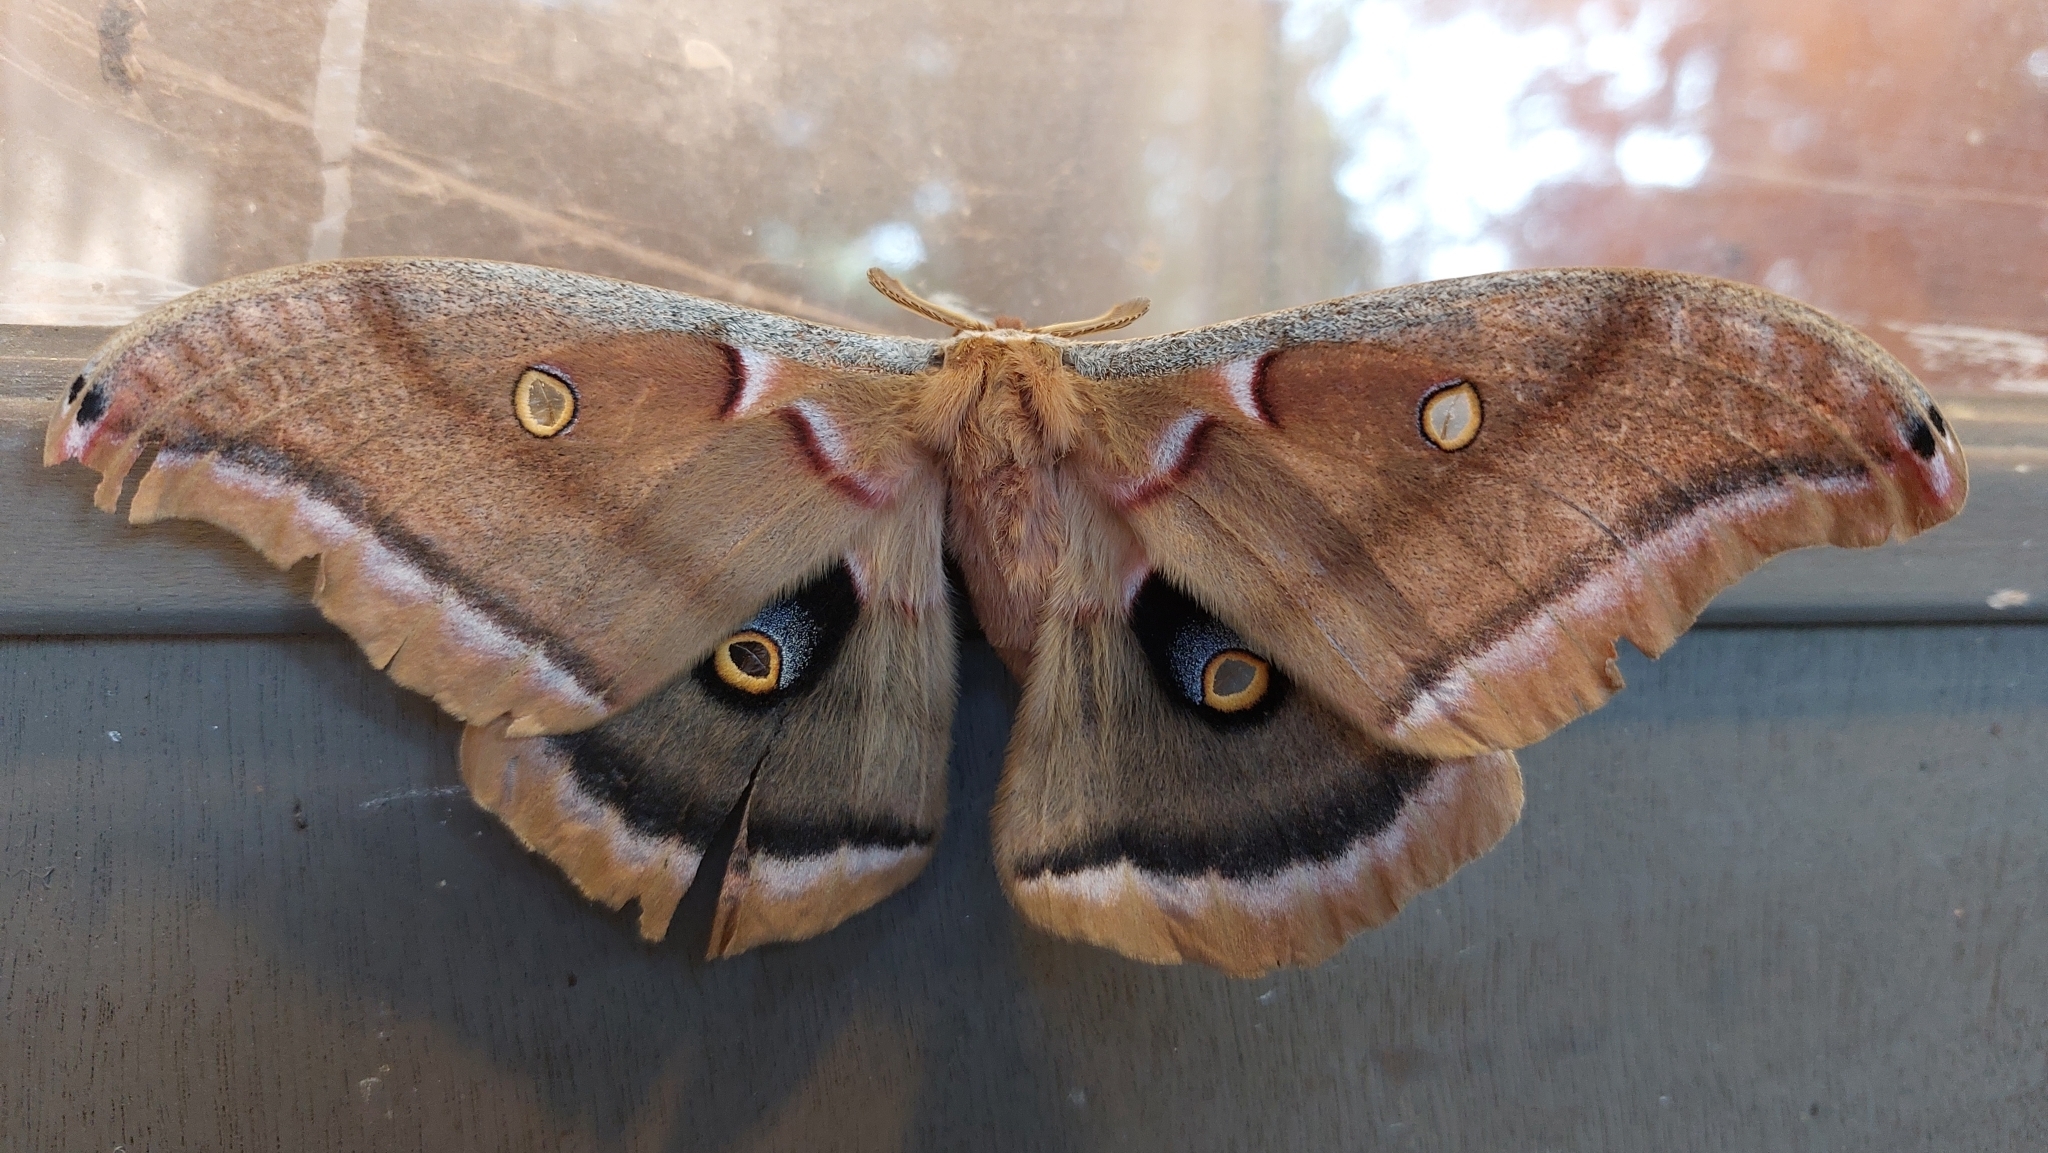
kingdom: Animalia
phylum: Arthropoda
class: Insecta
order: Lepidoptera
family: Saturniidae
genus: Antheraea
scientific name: Antheraea polyphemus
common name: Polyphemus moth
